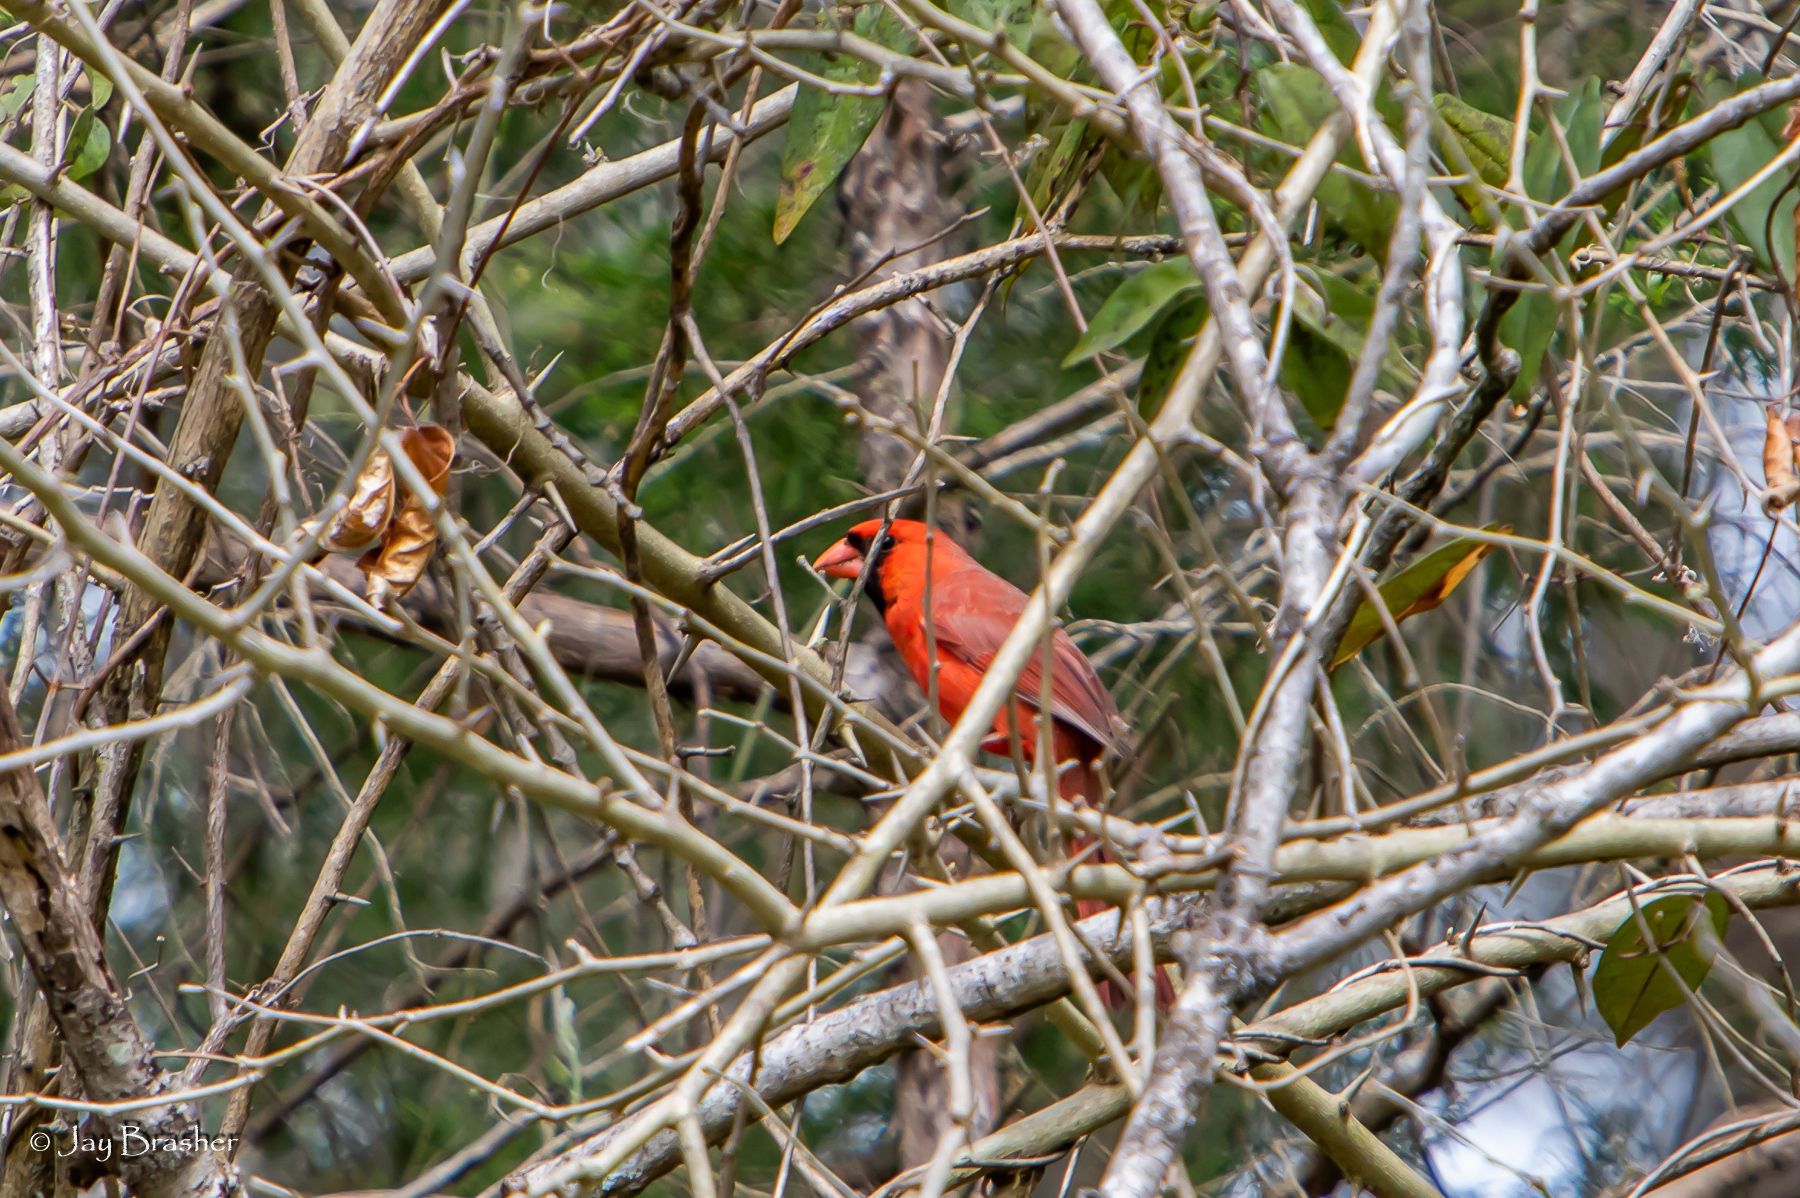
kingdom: Animalia
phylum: Chordata
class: Aves
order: Passeriformes
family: Cardinalidae
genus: Cardinalis
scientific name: Cardinalis cardinalis
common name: Northern cardinal
